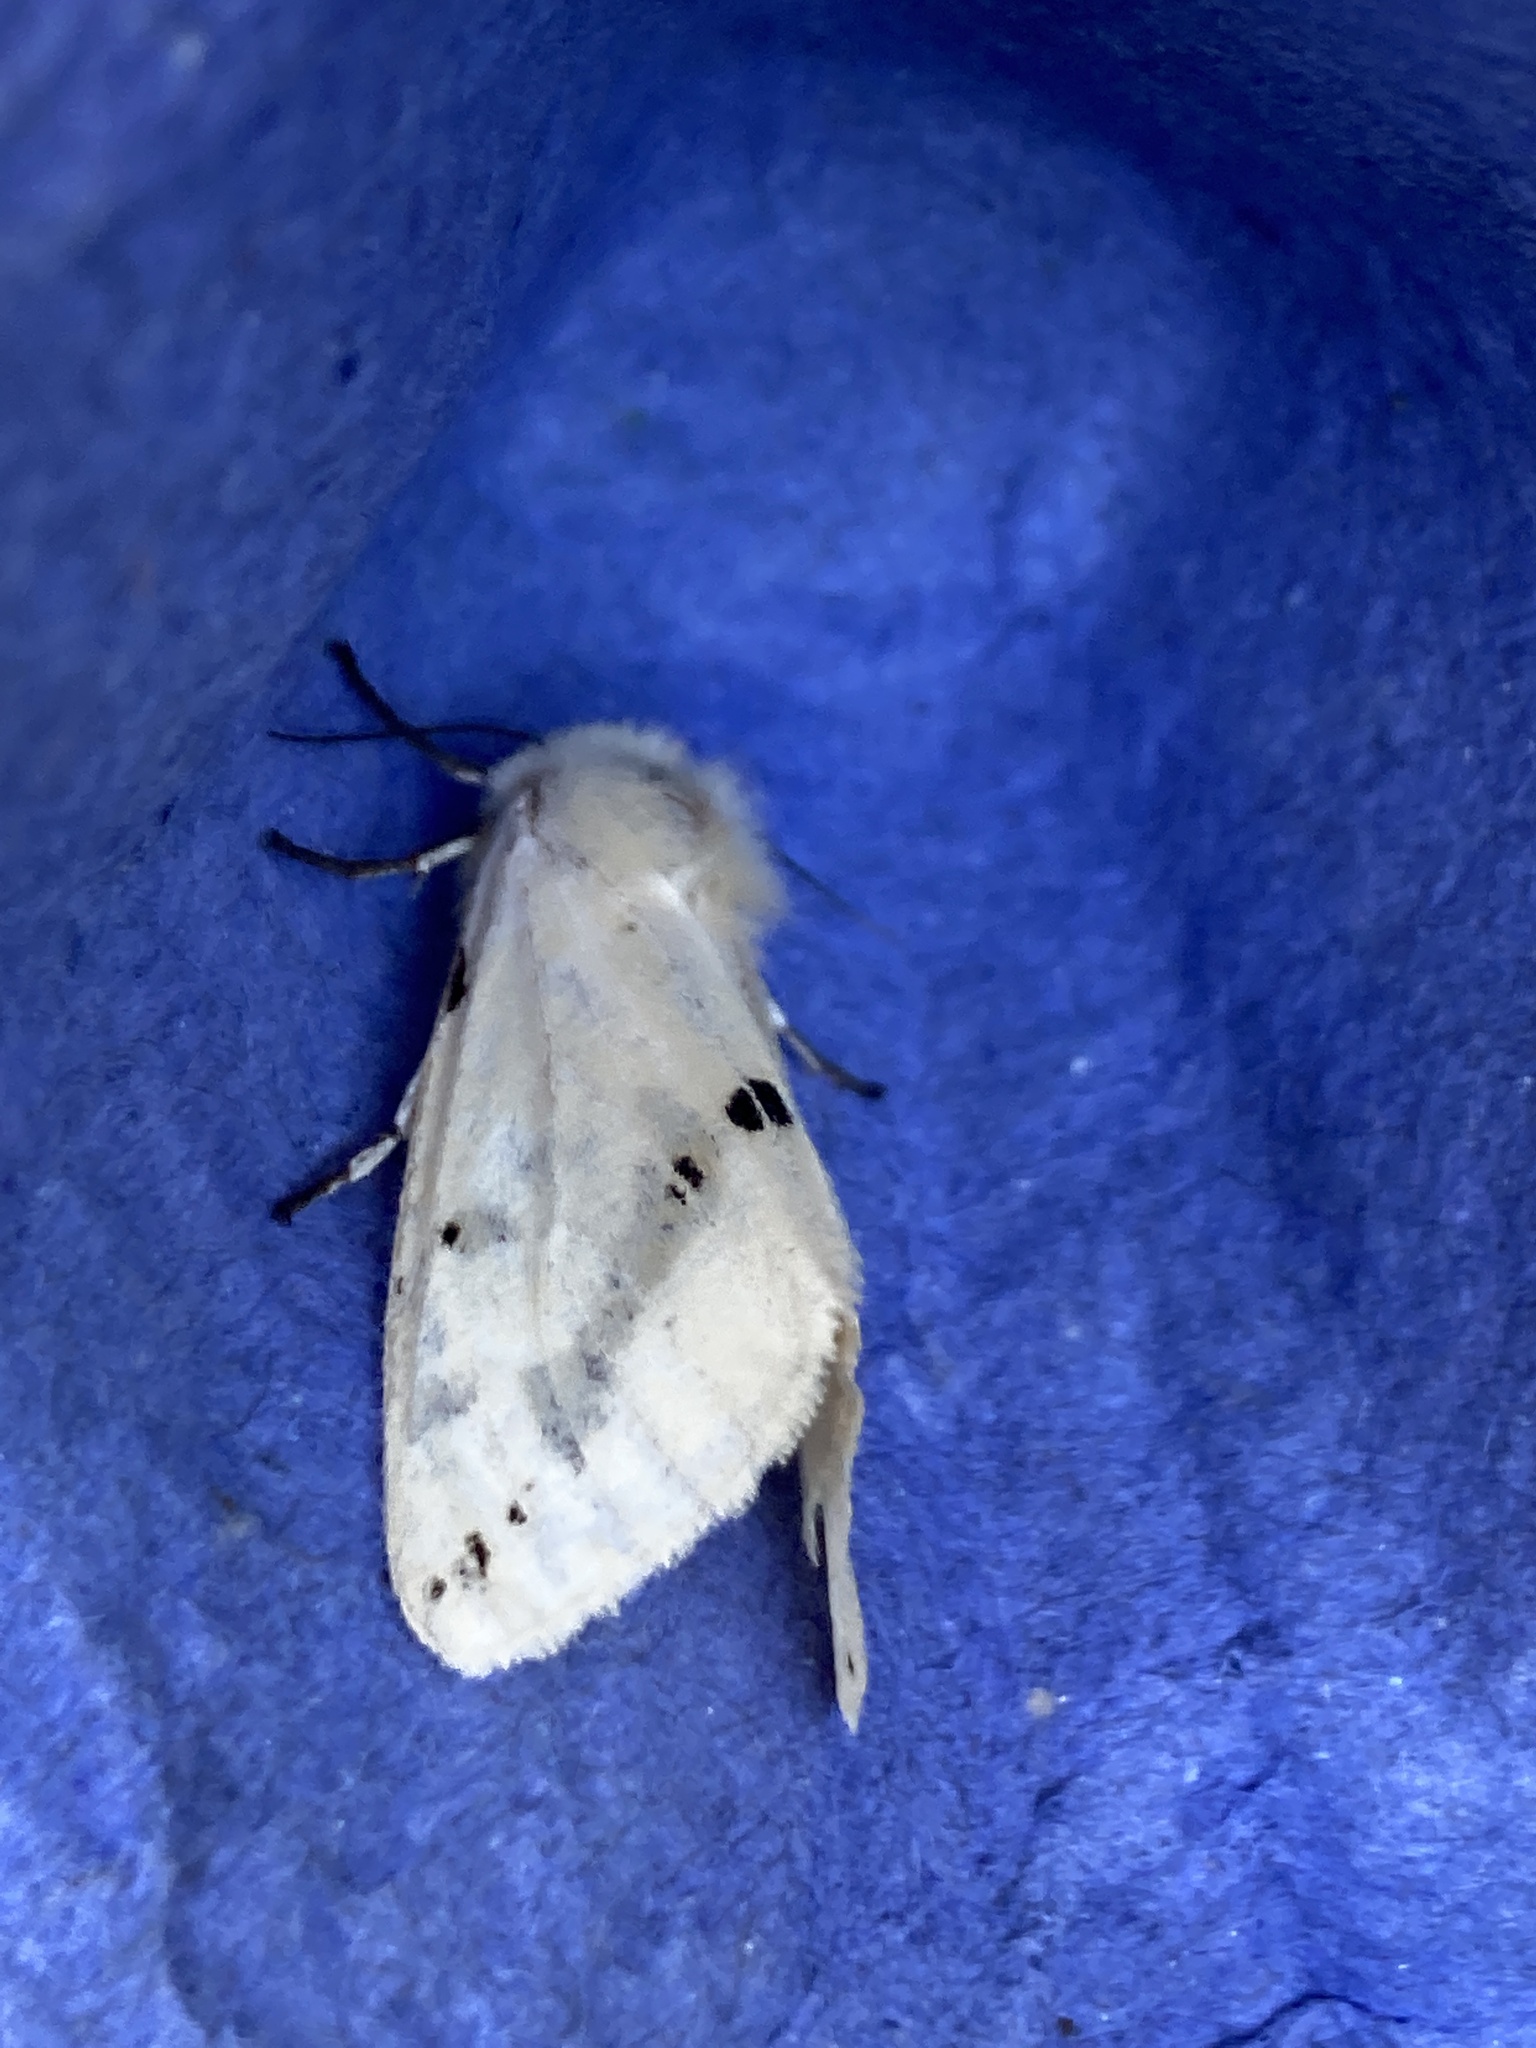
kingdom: Animalia
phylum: Arthropoda
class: Insecta
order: Lepidoptera
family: Erebidae
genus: Spilarctia
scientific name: Spilarctia lutea
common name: Buff ermine
